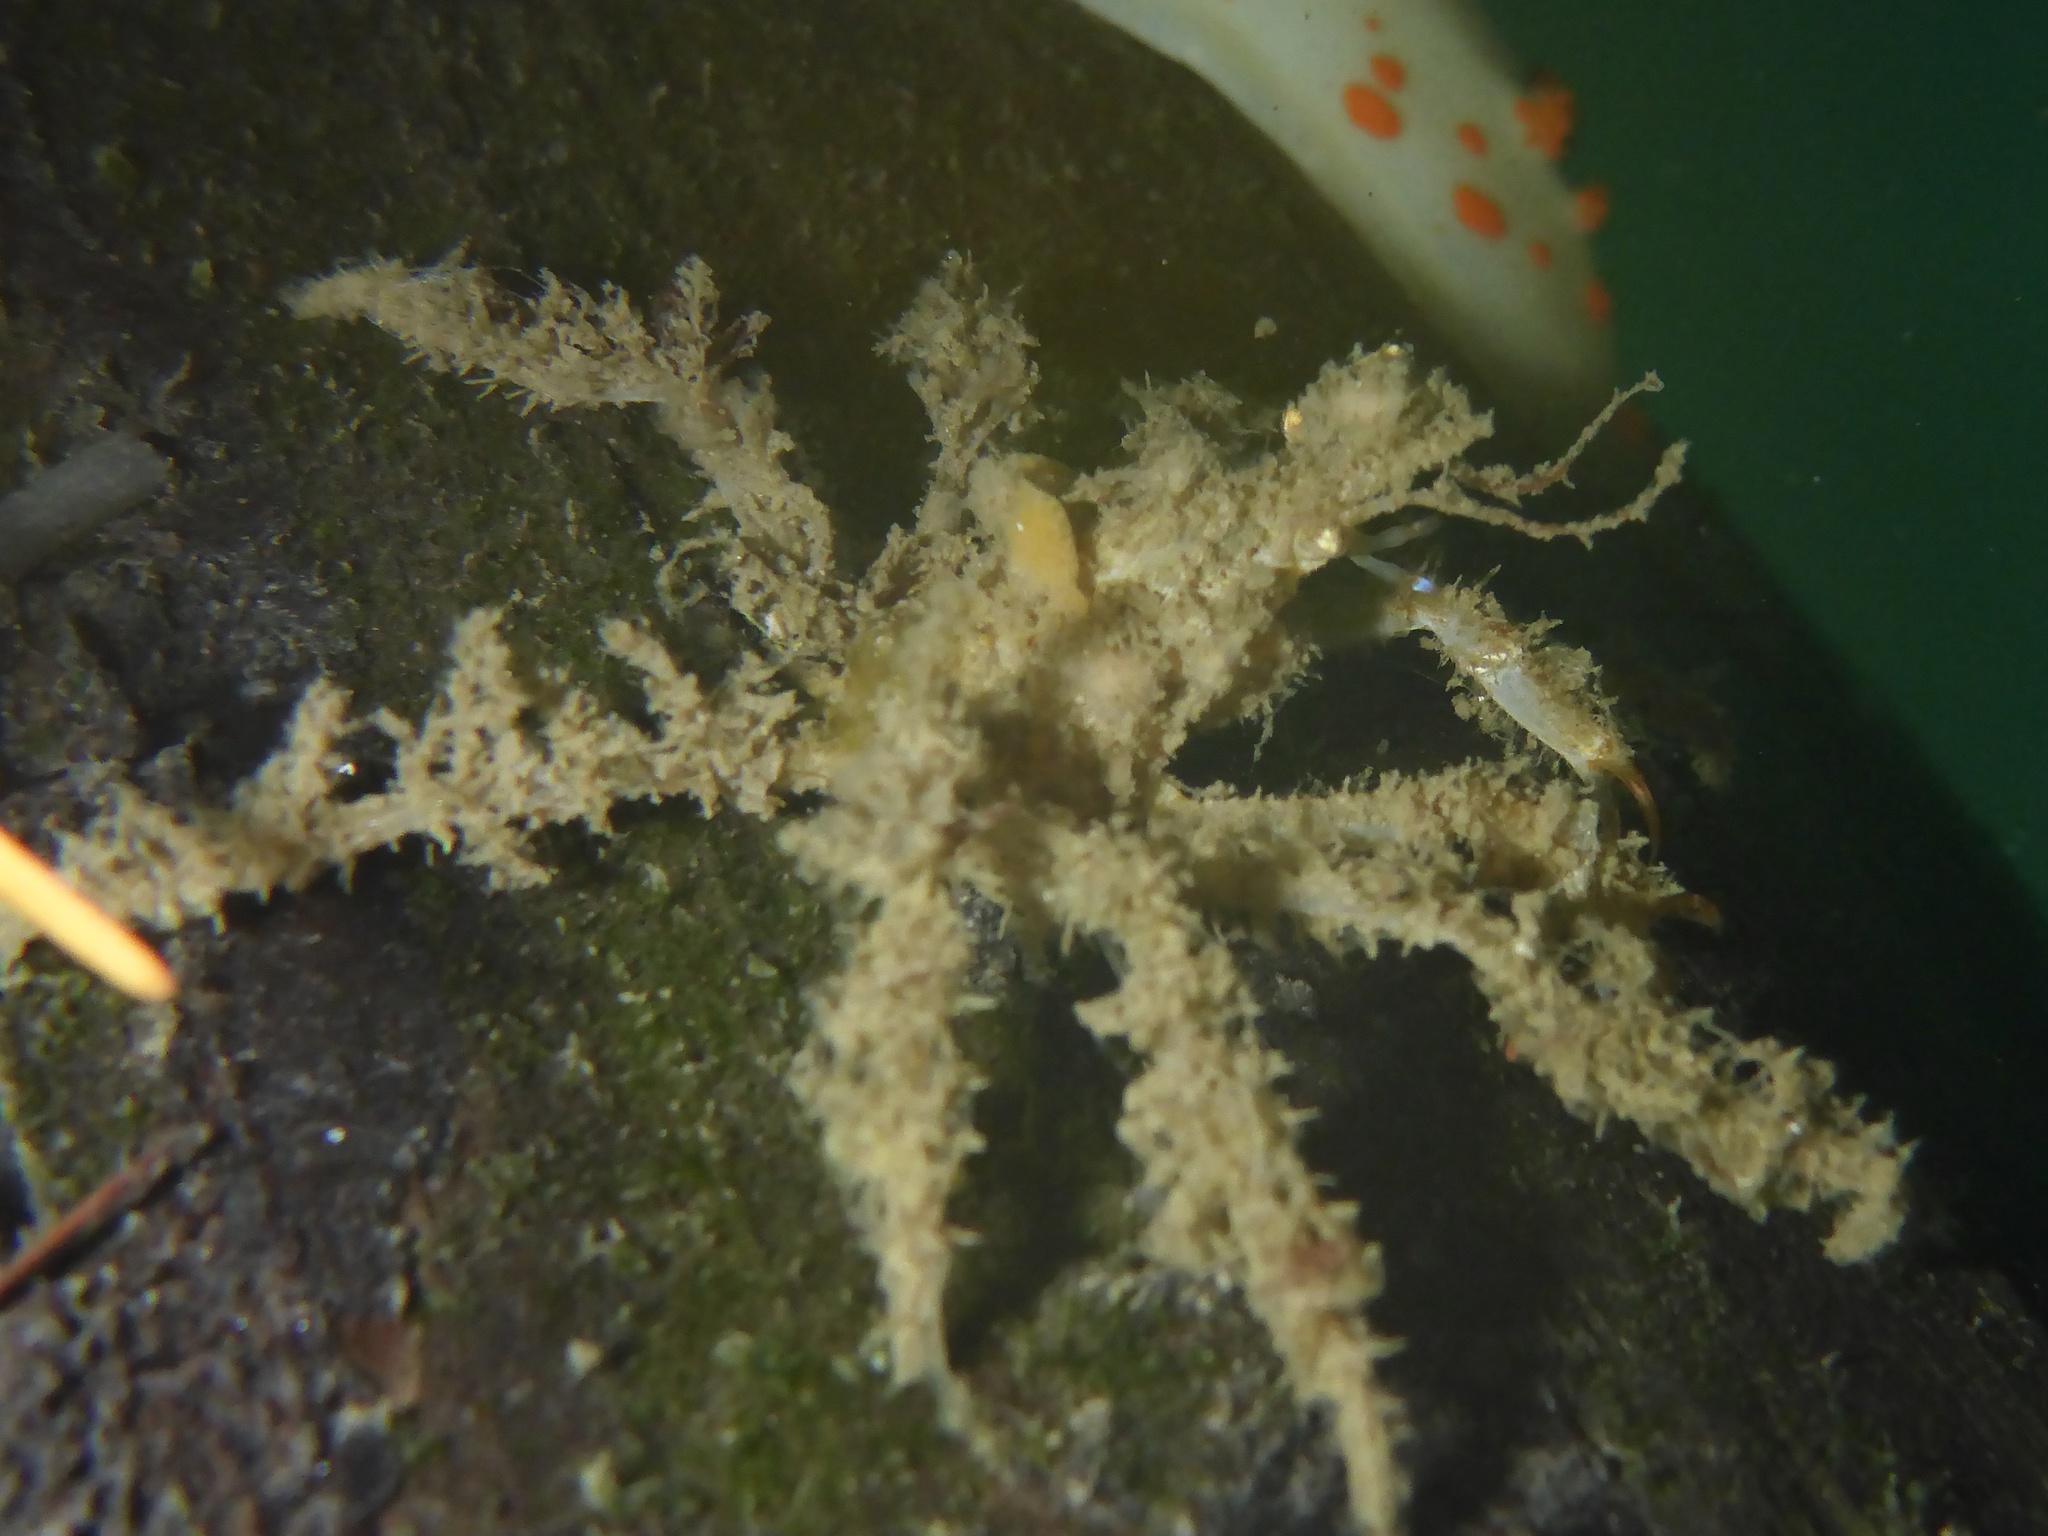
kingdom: Animalia
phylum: Arthropoda
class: Malacostraca
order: Decapoda
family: Oregoniidae
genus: Oregonia
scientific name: Oregonia gracilis
